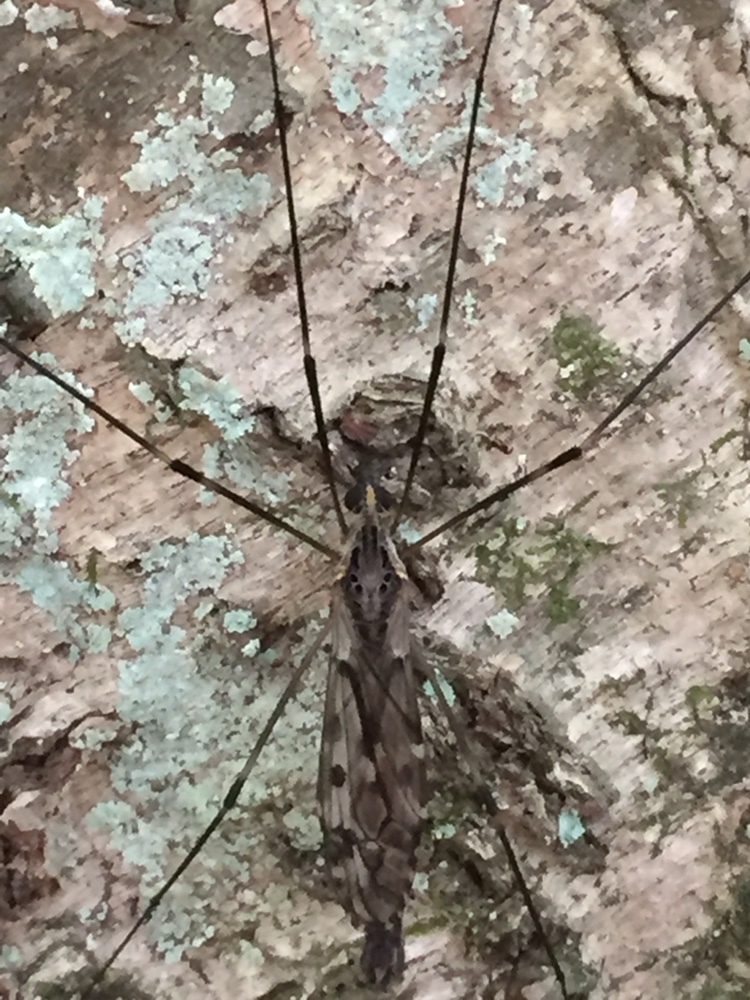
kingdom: Animalia
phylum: Arthropoda
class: Insecta
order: Diptera
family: Tipulidae
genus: Tipula
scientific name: Tipula abdominalis
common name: Giant crane fly
